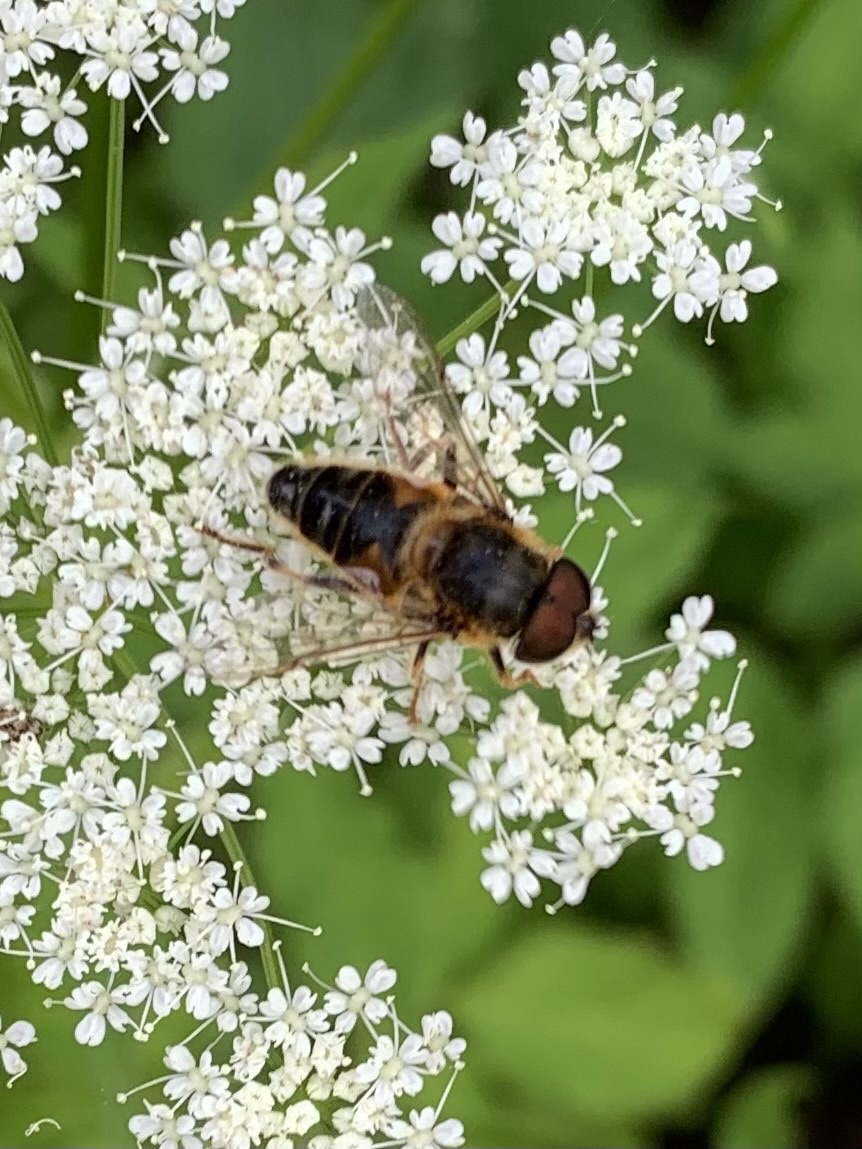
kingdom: Animalia
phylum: Arthropoda
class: Insecta
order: Diptera
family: Syrphidae
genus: Eristalis
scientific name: Eristalis pertinax
